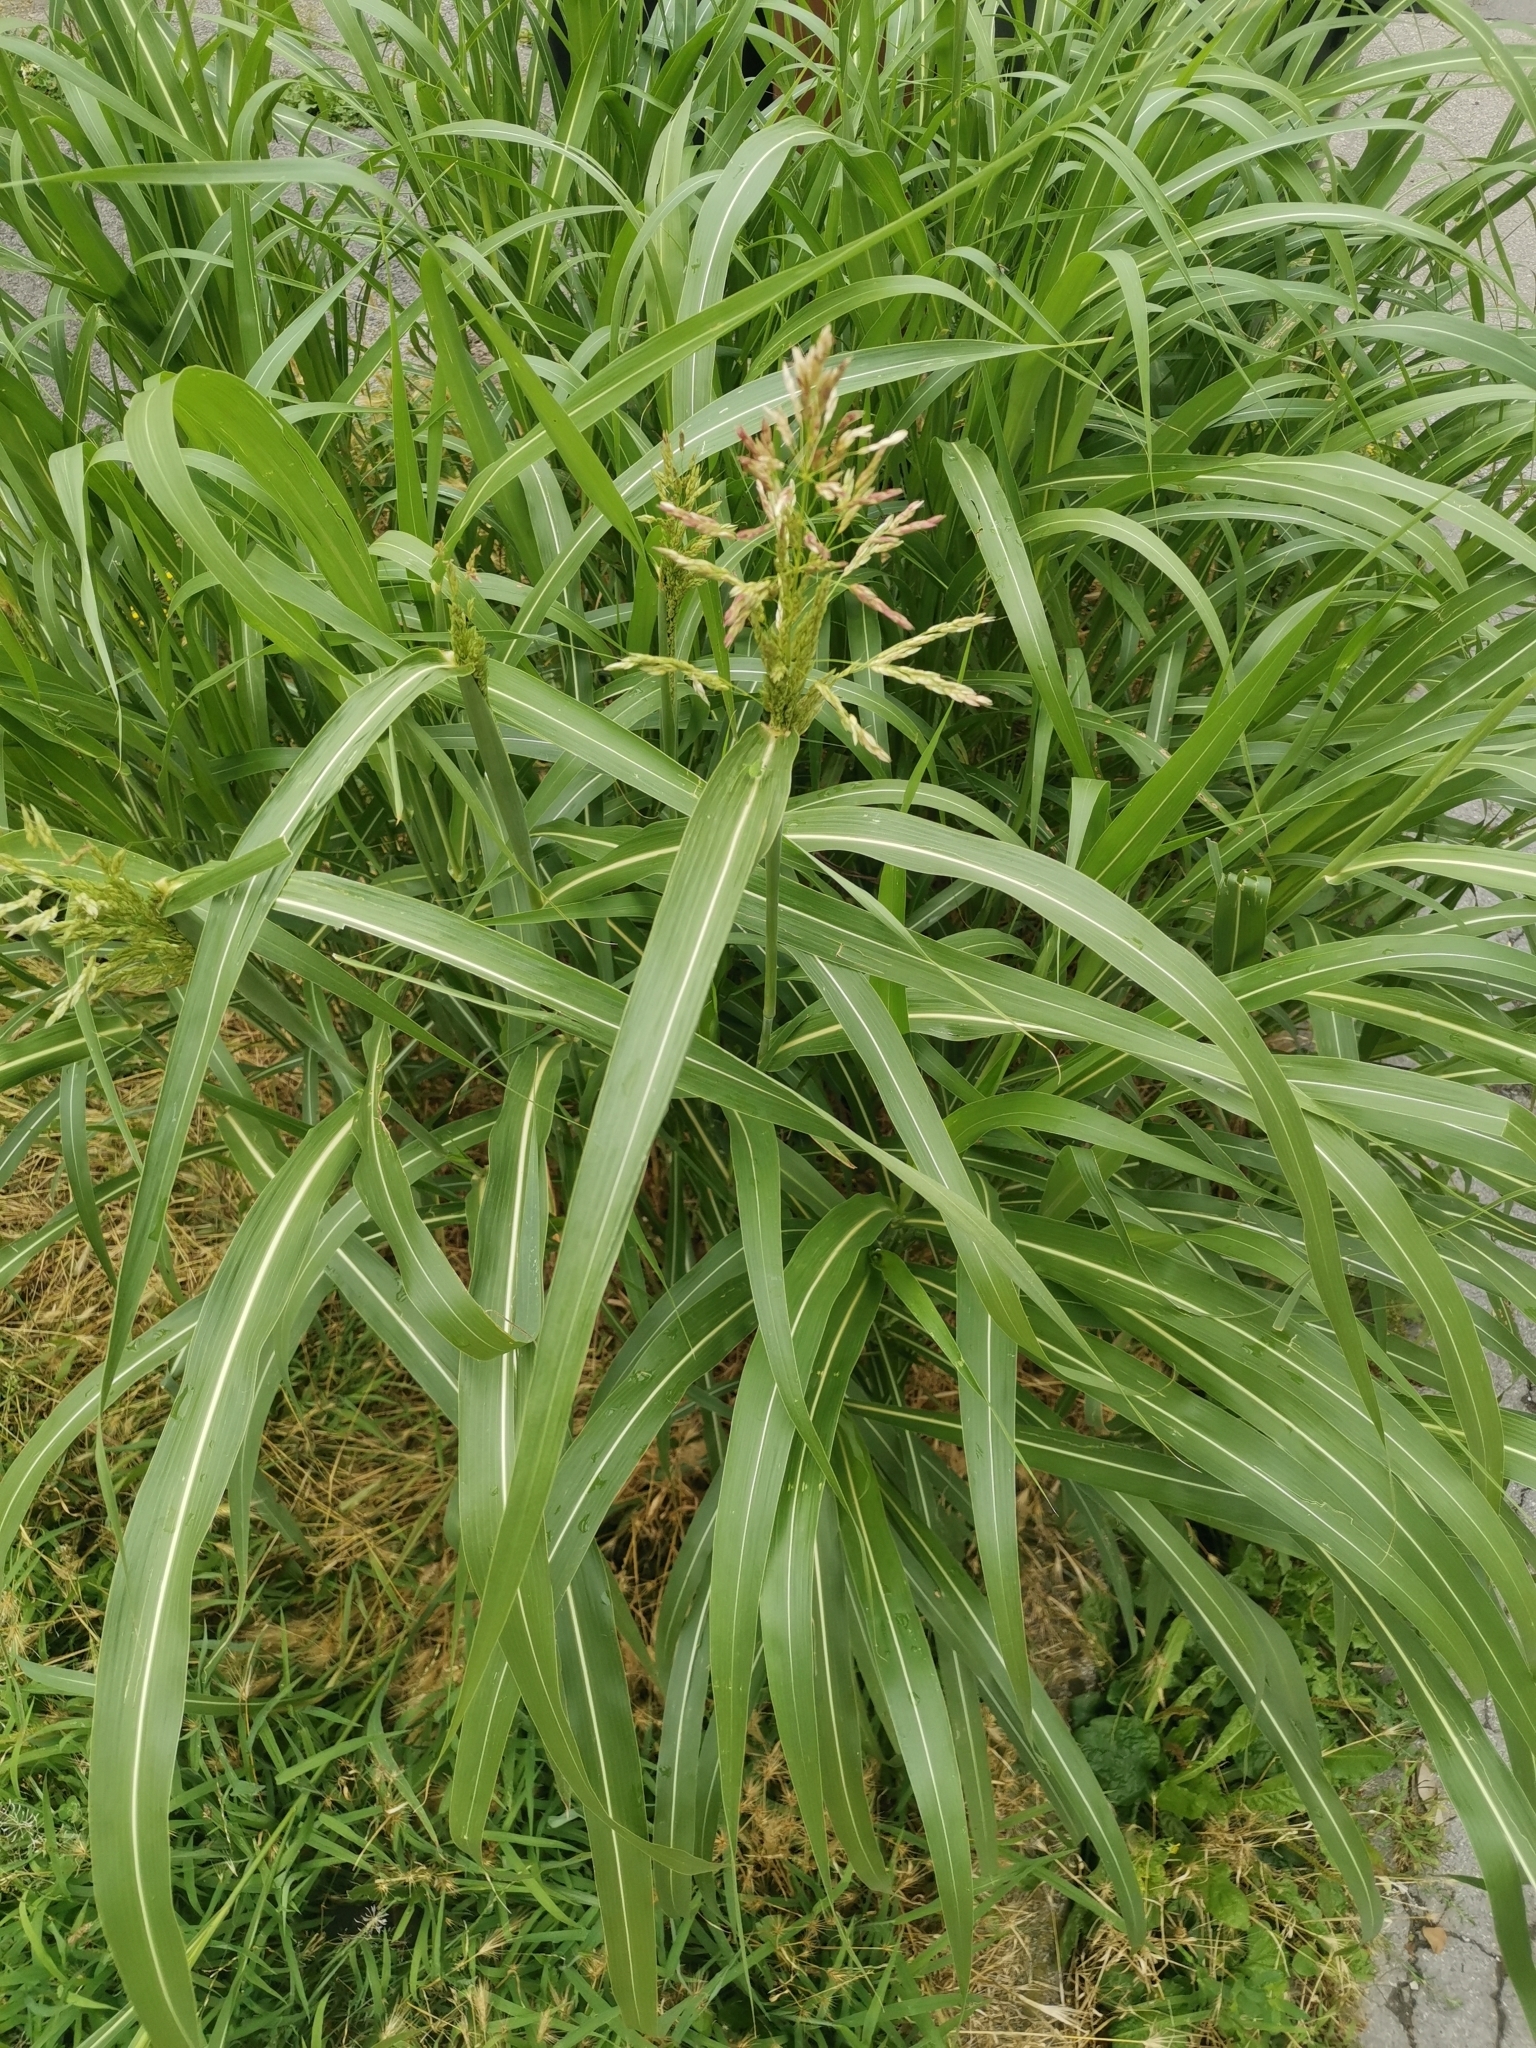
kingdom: Plantae
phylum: Tracheophyta
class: Liliopsida
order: Poales
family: Poaceae
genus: Sorghum
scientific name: Sorghum halepense
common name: Johnson-grass
